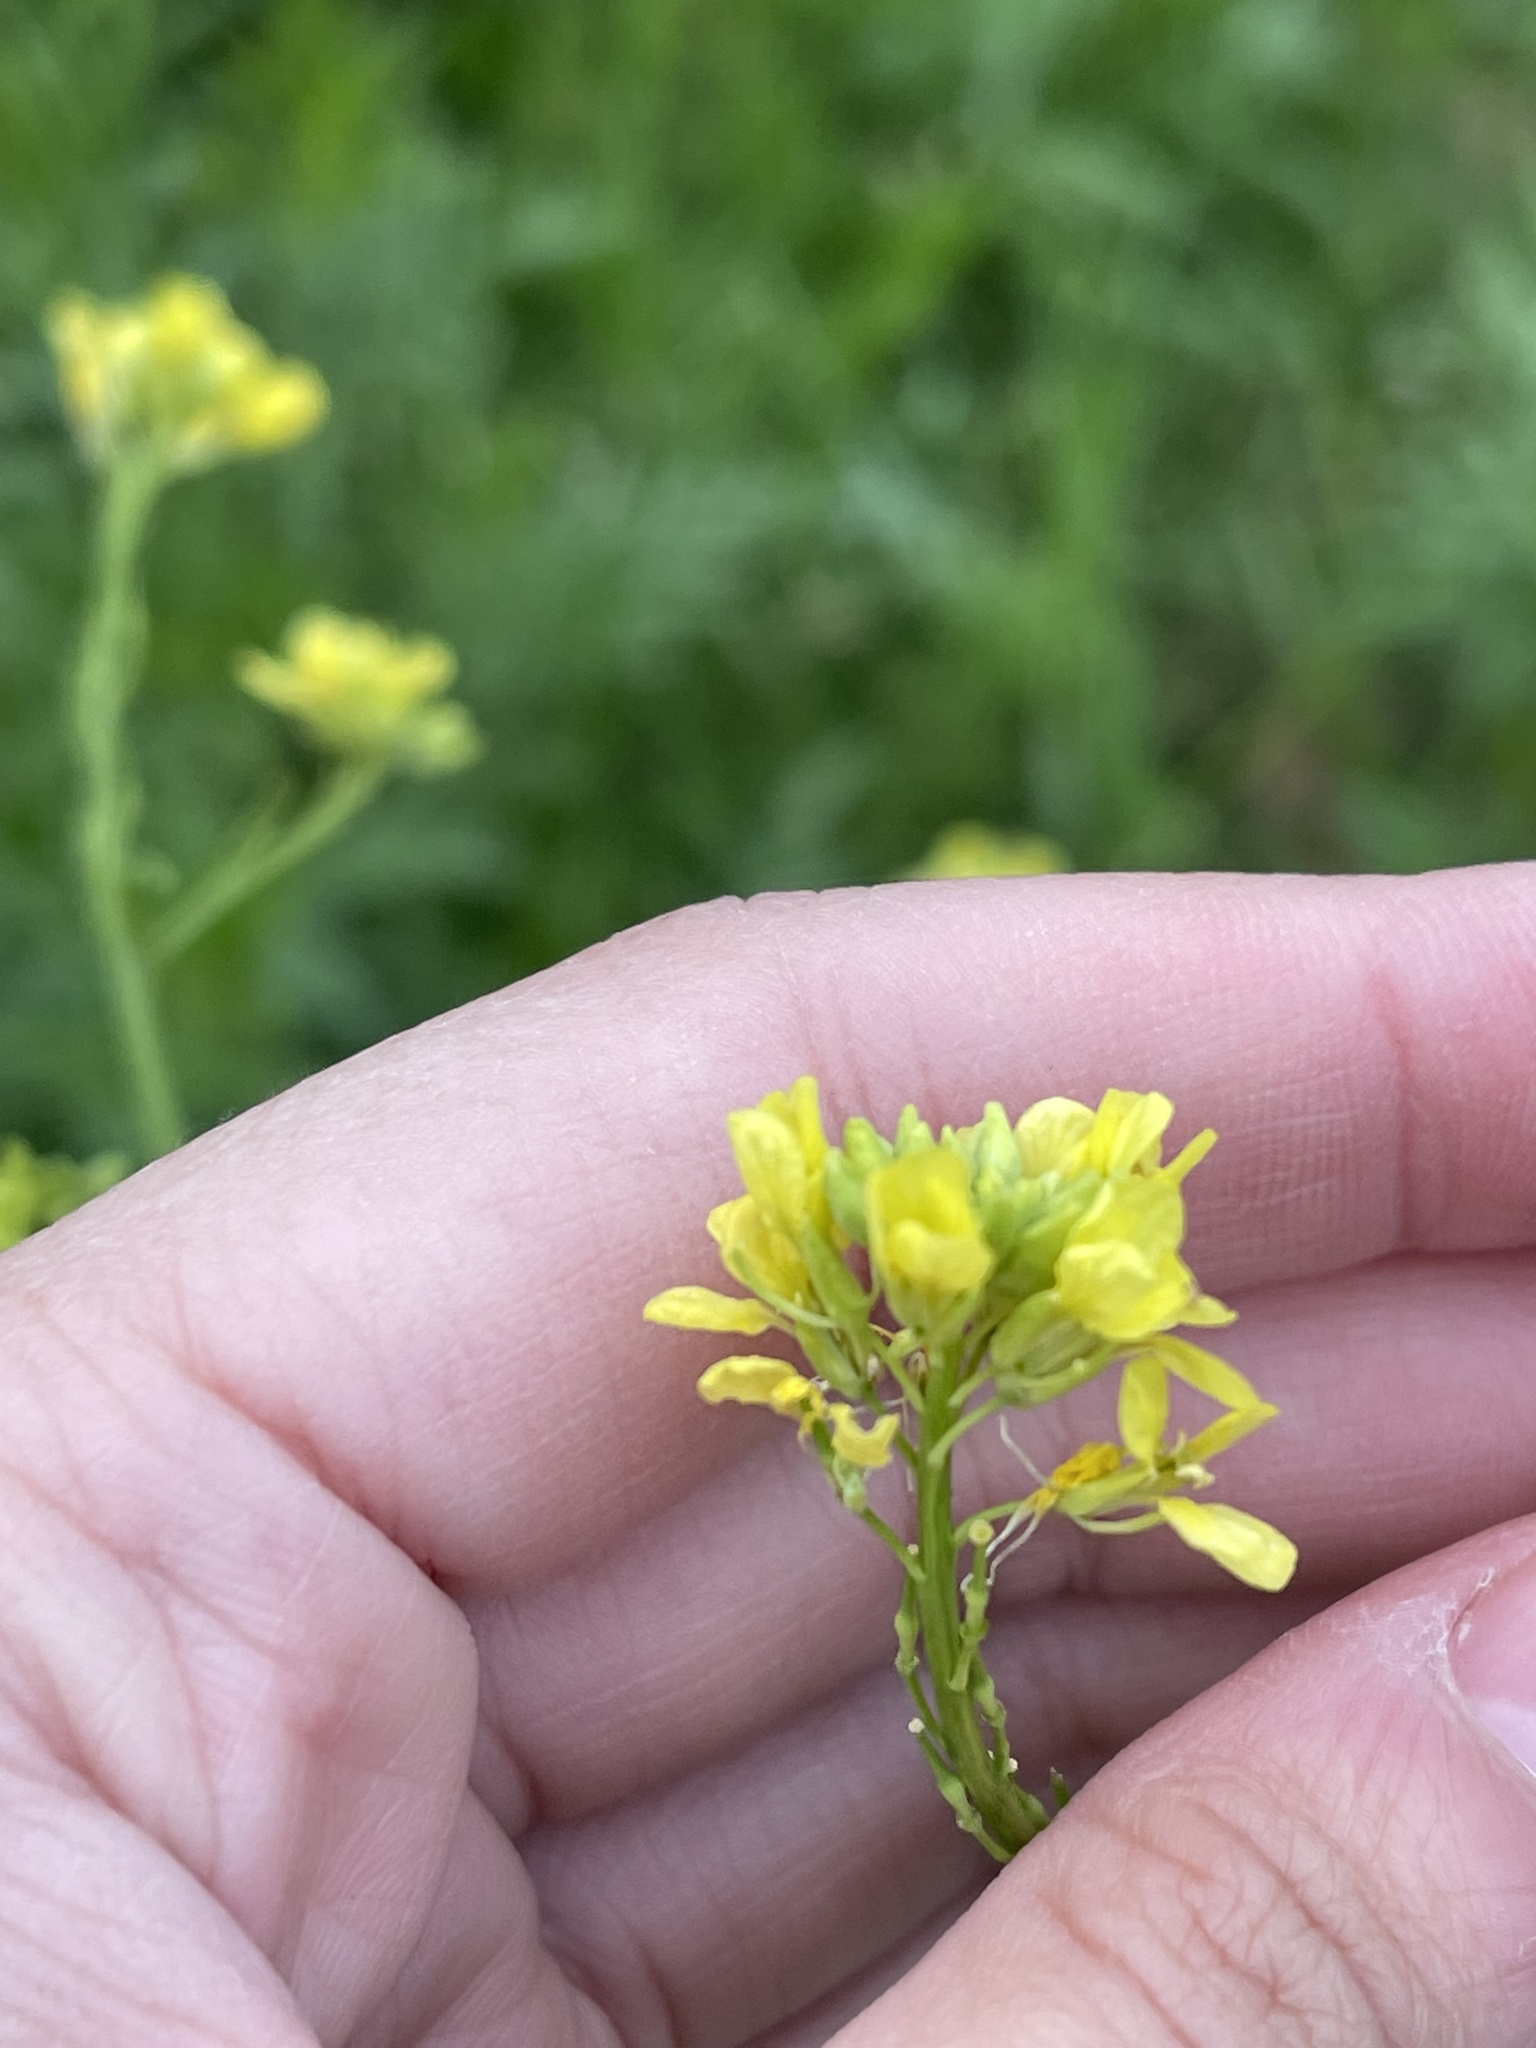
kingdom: Plantae
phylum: Tracheophyta
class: Magnoliopsida
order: Brassicales
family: Brassicaceae
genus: Rapistrum
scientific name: Rapistrum rugosum
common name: Annual bastardcabbage
